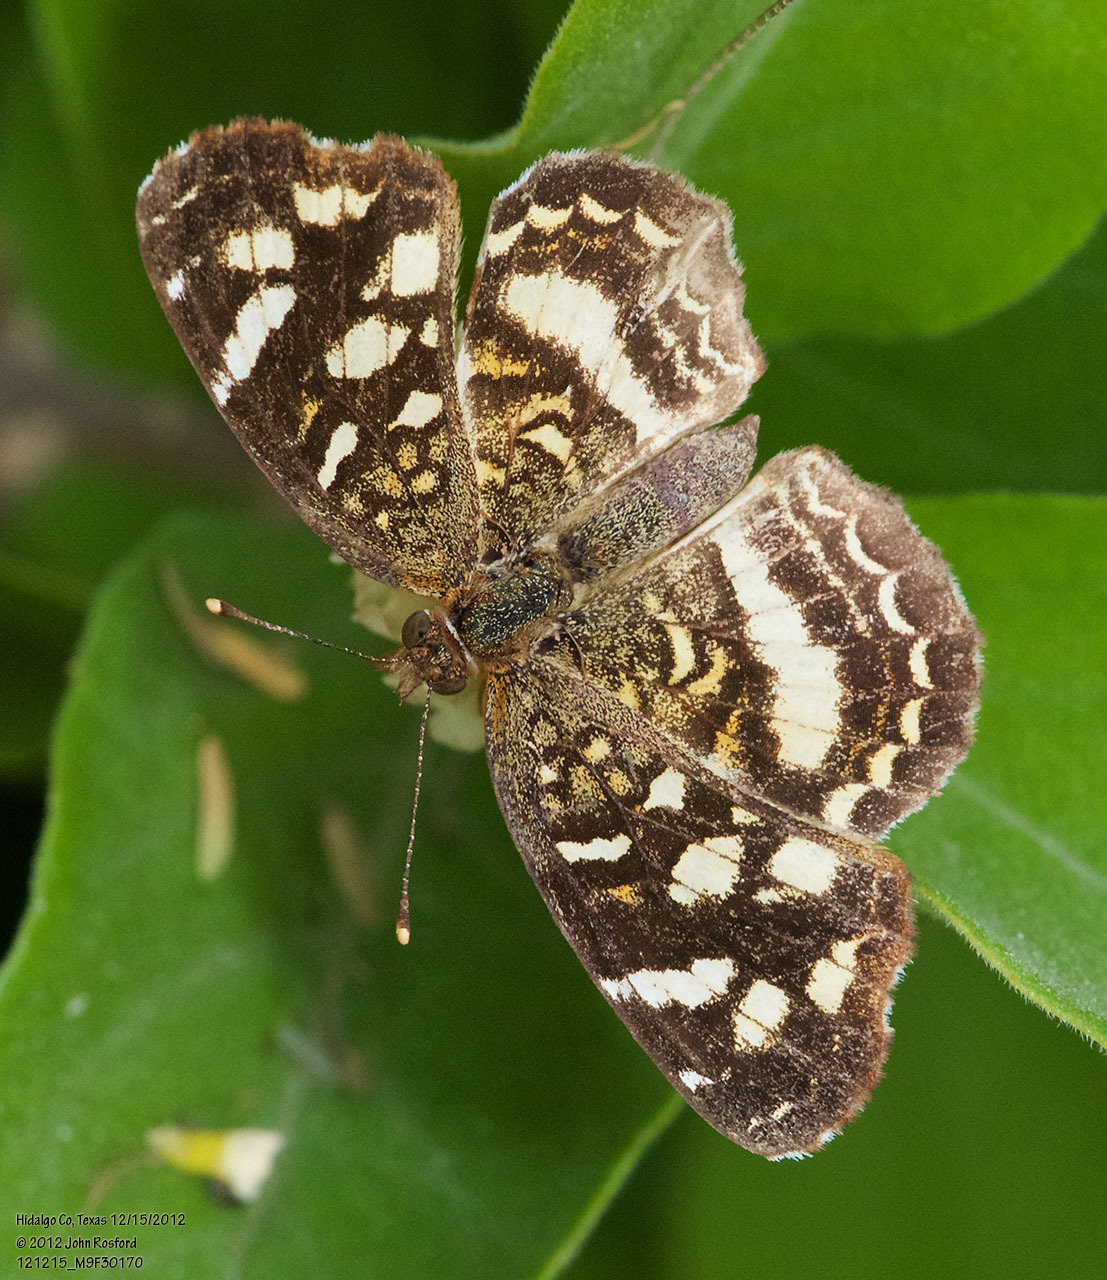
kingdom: Animalia
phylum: Arthropoda
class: Insecta
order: Lepidoptera
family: Nymphalidae
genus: Anthanassa
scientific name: Anthanassa tulcis
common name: Pale-banded crescent
